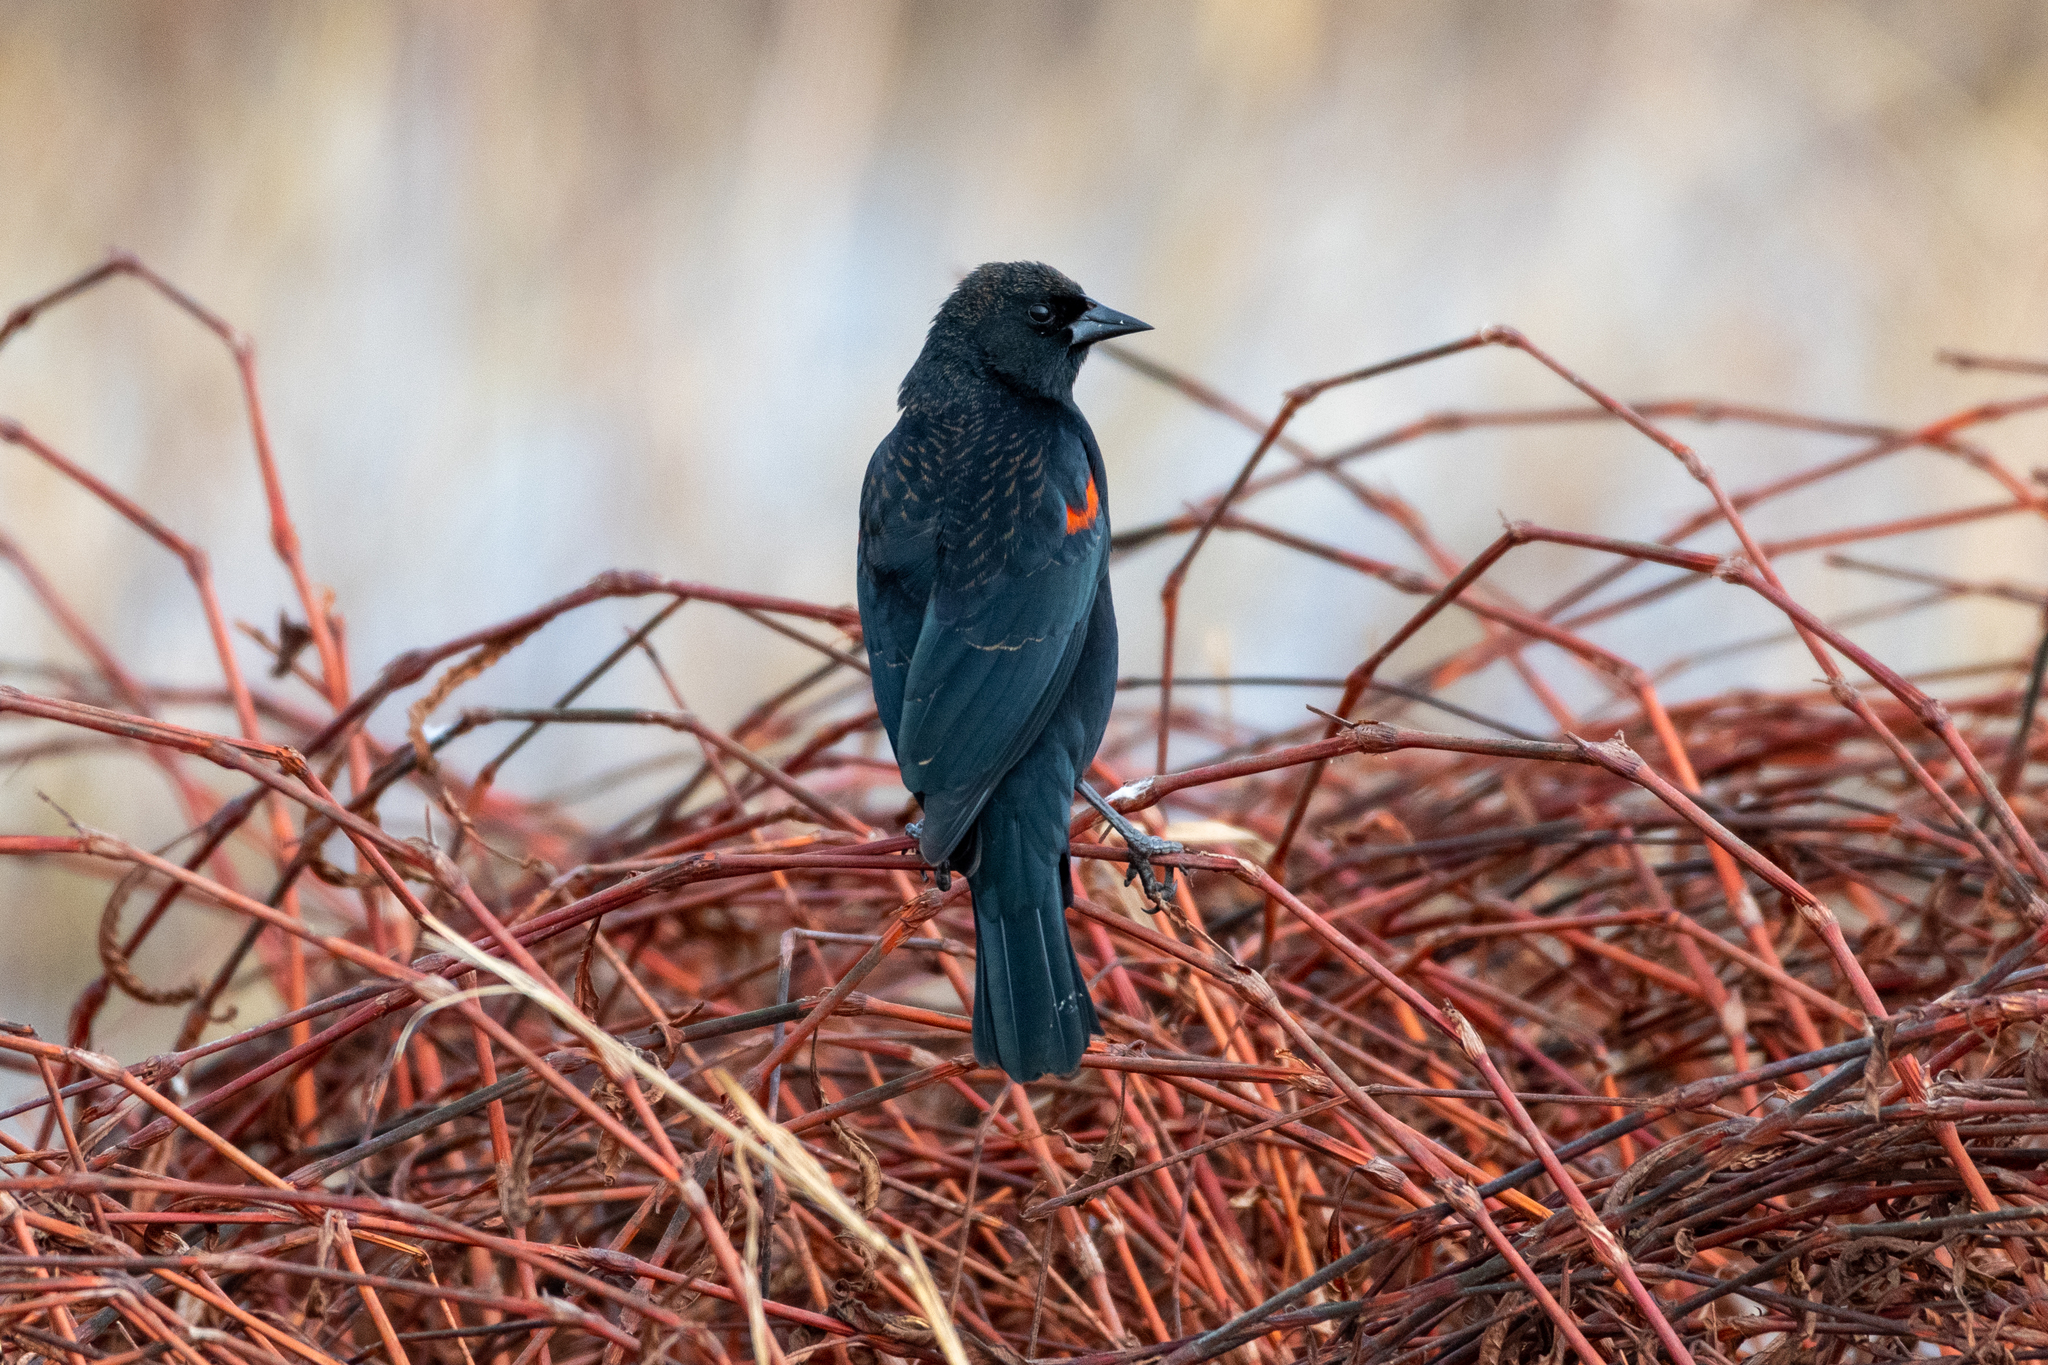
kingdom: Animalia
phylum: Chordata
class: Aves
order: Passeriformes
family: Icteridae
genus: Agelaius
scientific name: Agelaius phoeniceus
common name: Red-winged blackbird
